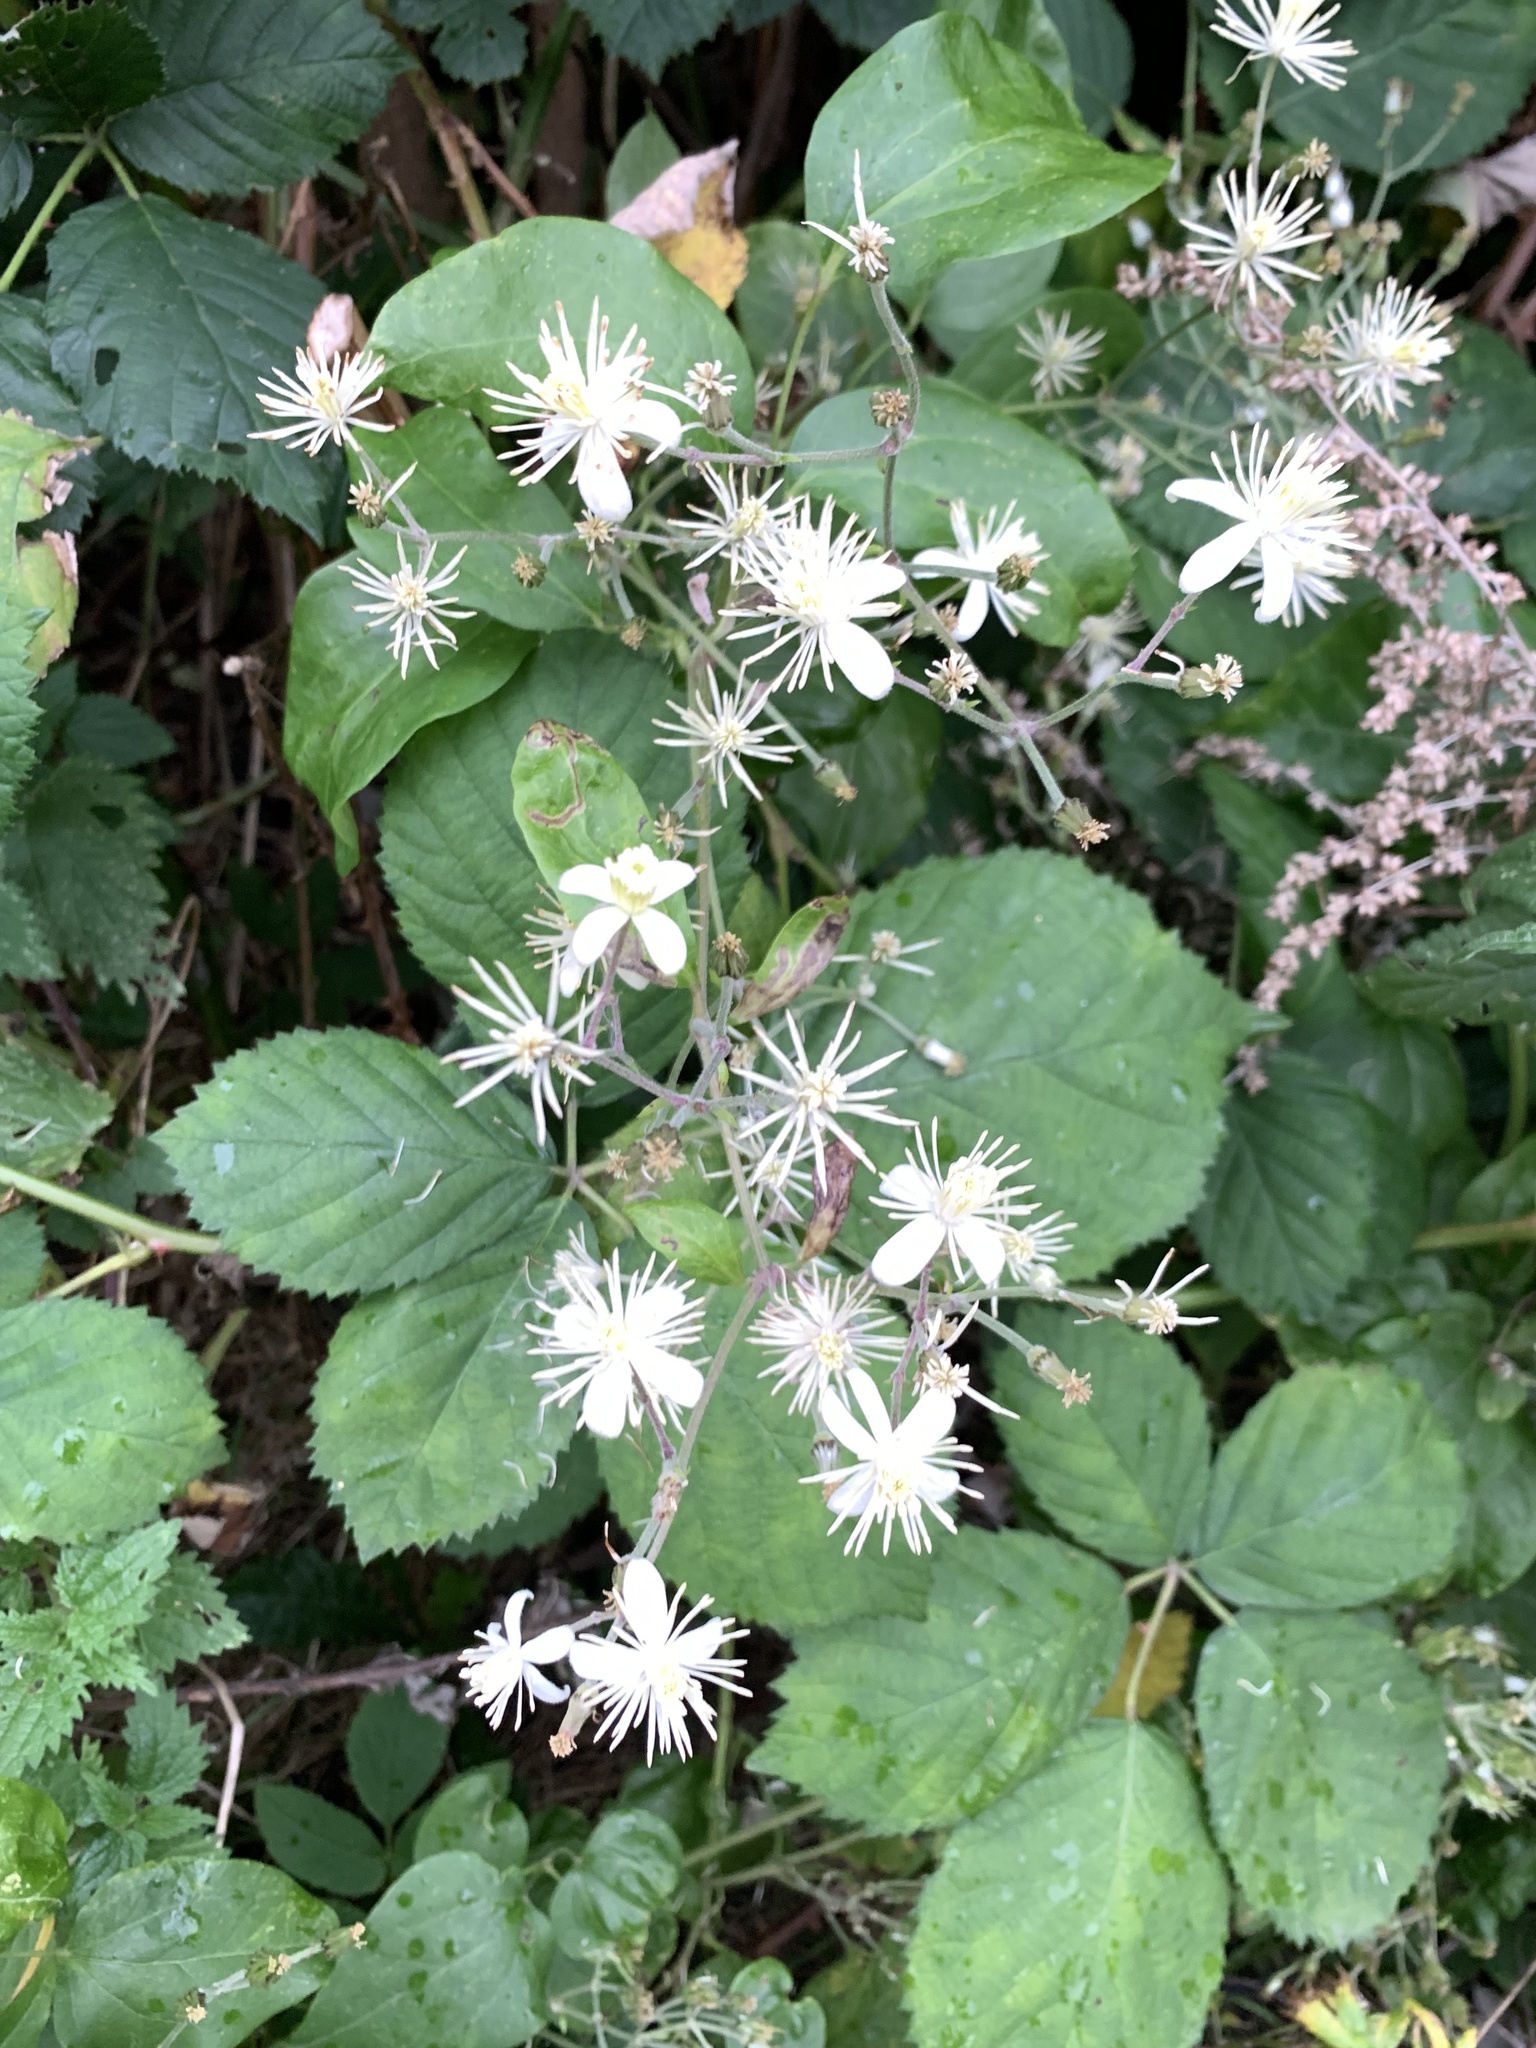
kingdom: Plantae
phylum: Tracheophyta
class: Magnoliopsida
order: Ranunculales
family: Ranunculaceae
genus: Clematis
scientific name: Clematis vitalba
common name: Evergreen clematis
